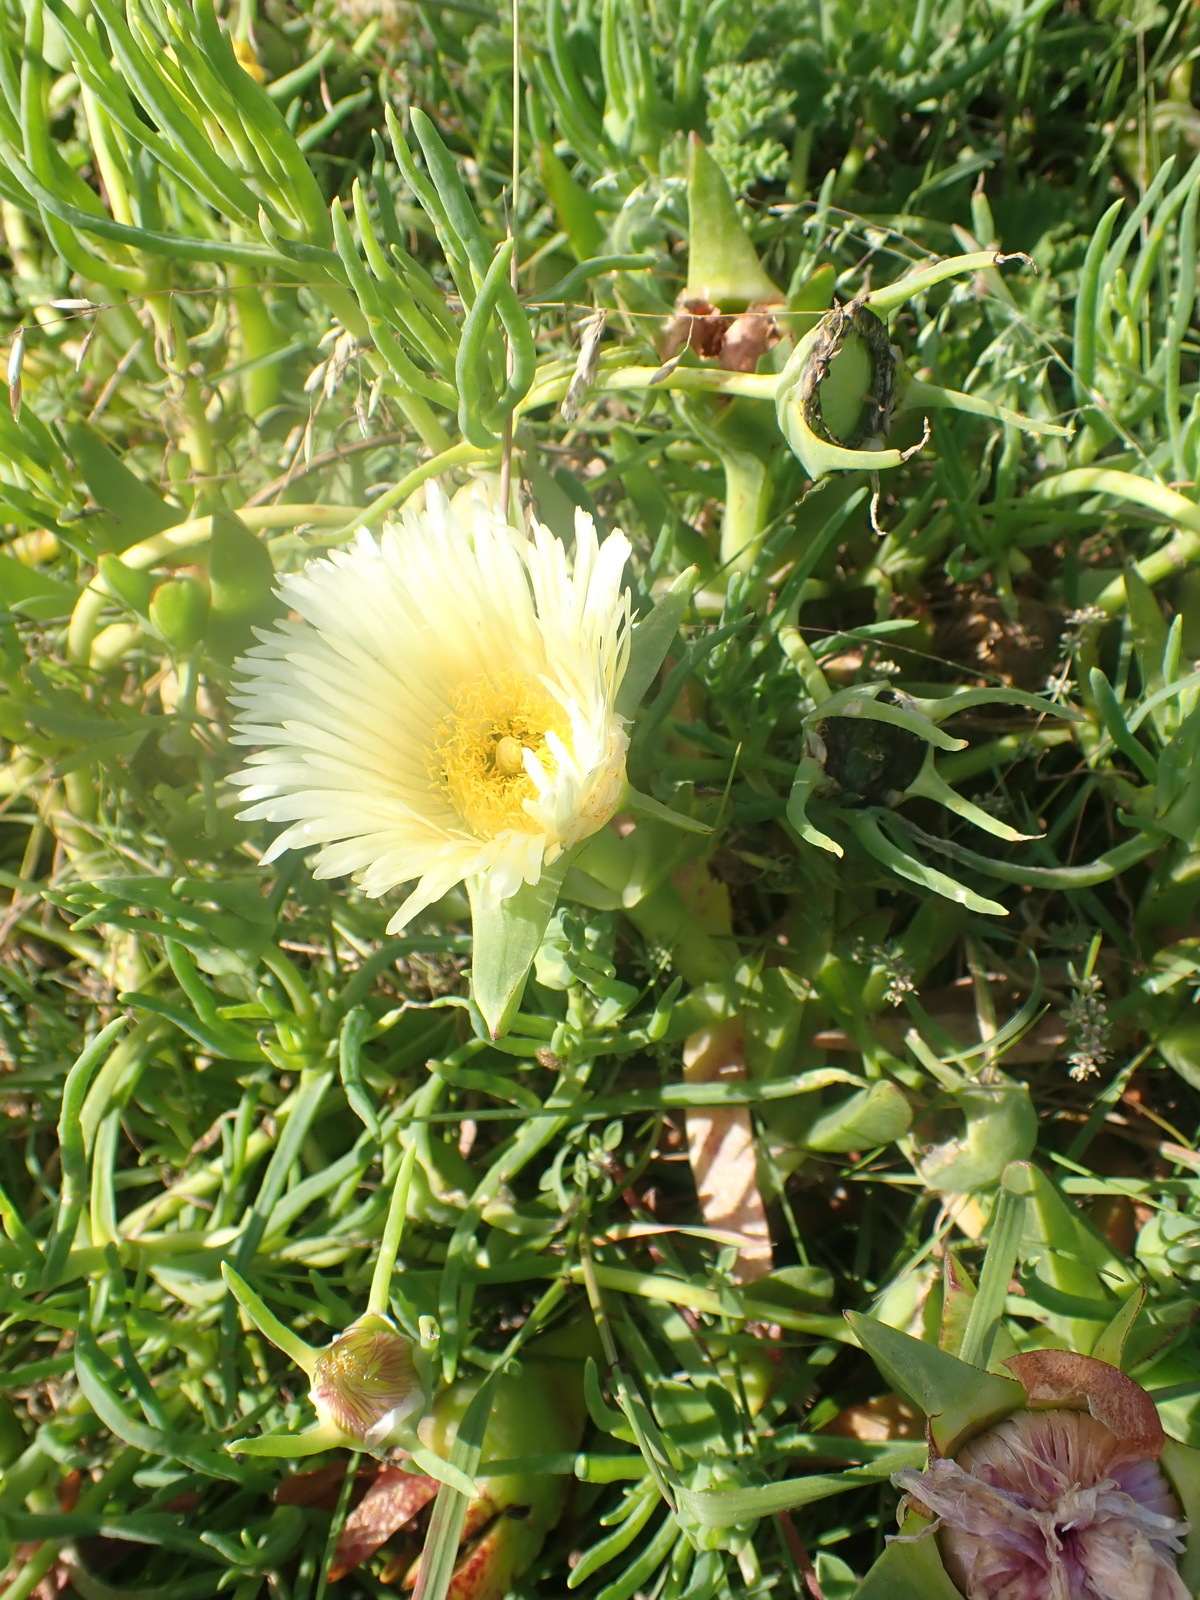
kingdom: Plantae
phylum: Tracheophyta
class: Magnoliopsida
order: Caryophyllales
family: Aizoaceae
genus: Carpobrotus
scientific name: Carpobrotus edulis
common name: Hottentot-fig
